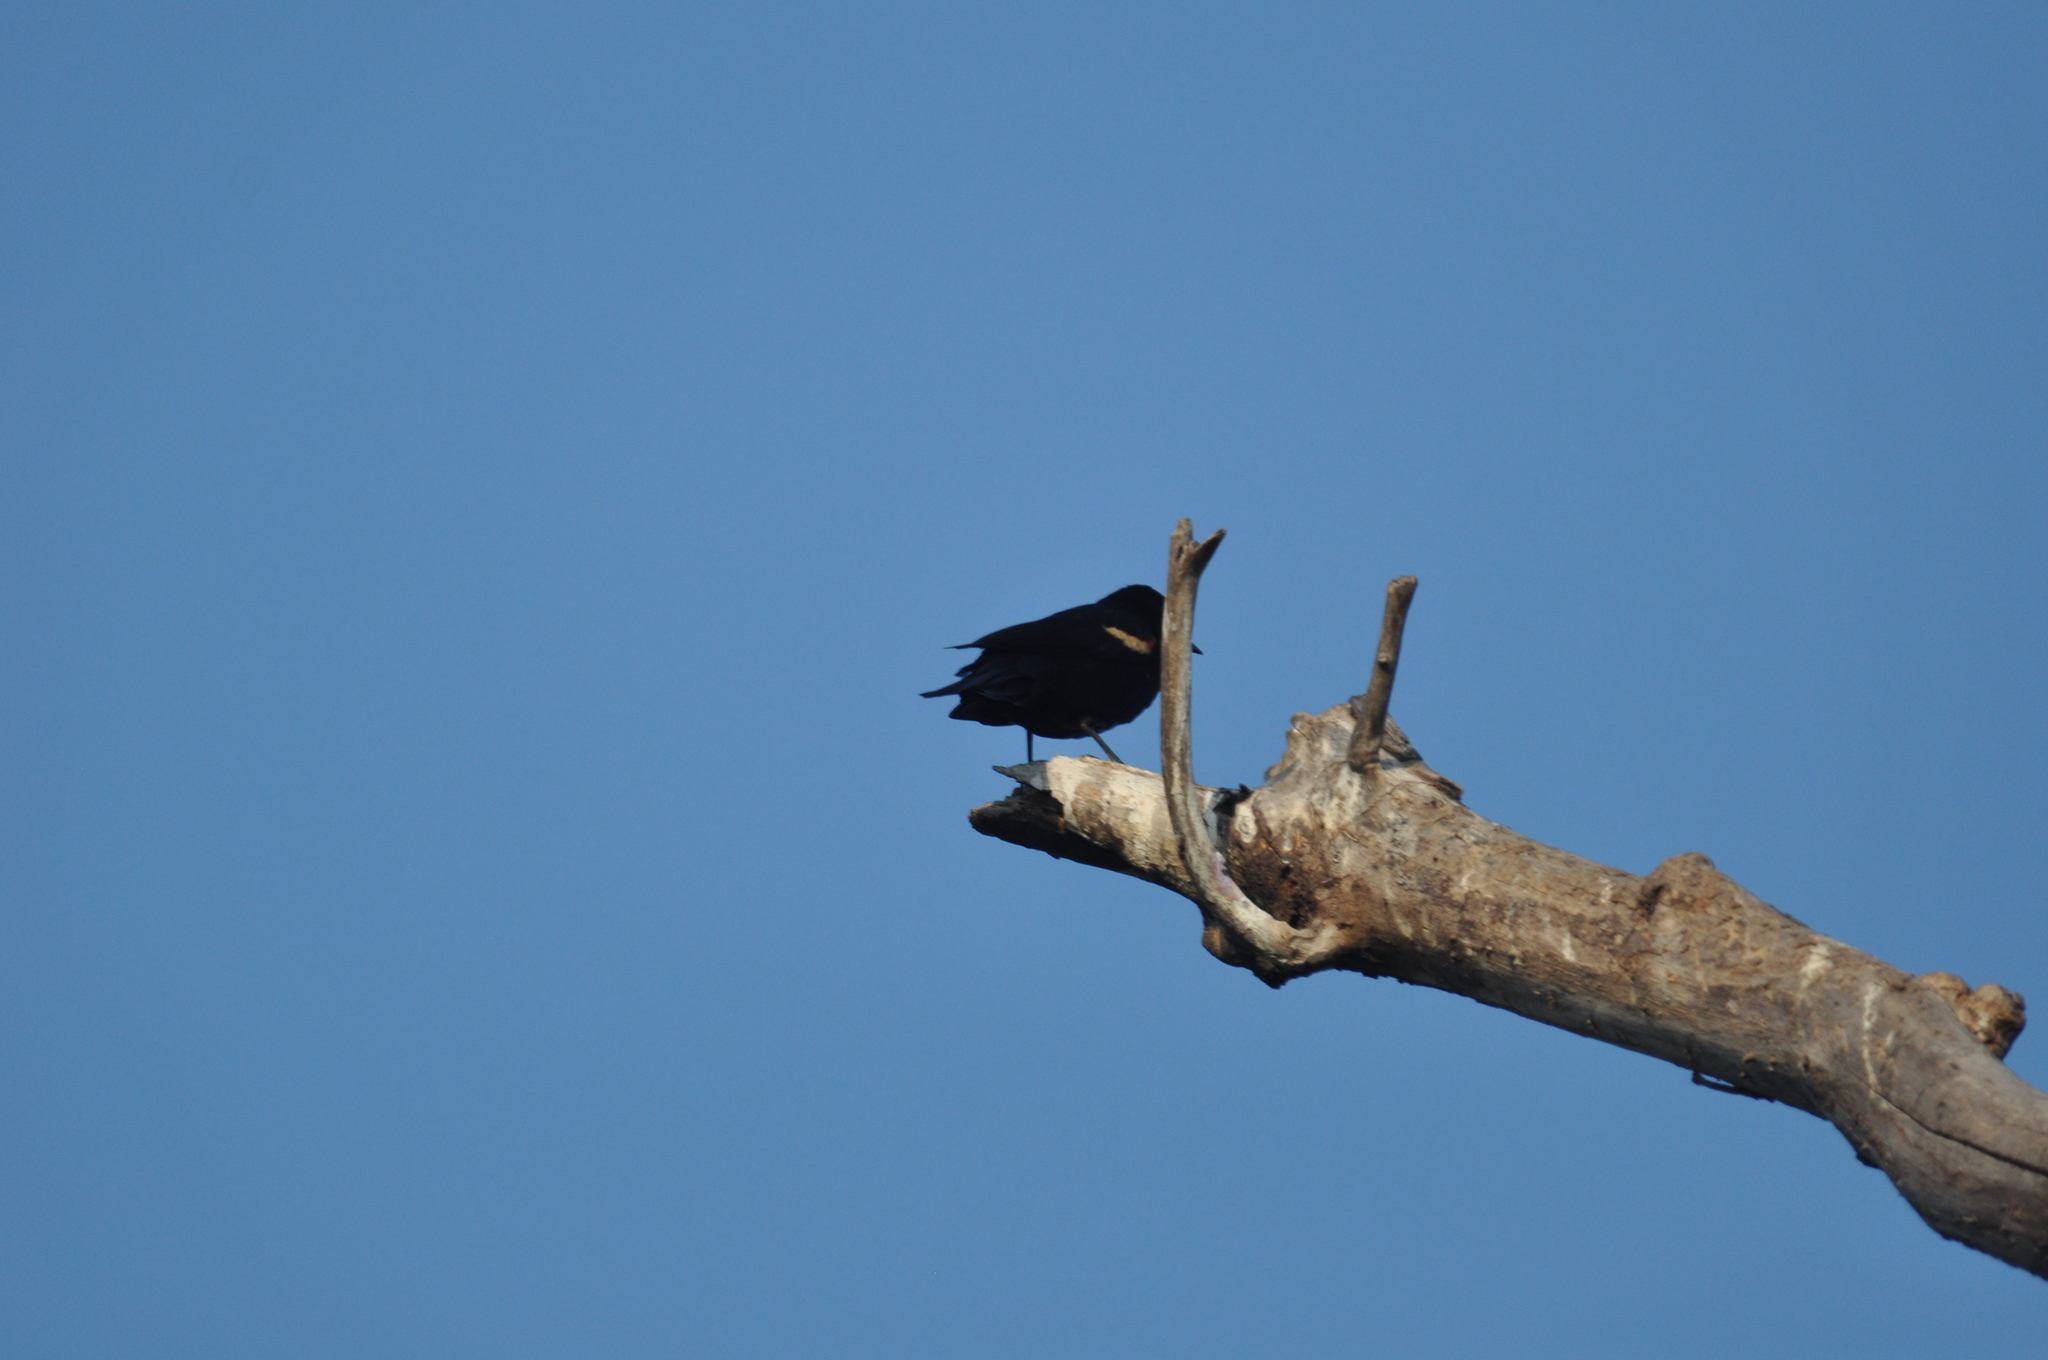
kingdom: Animalia
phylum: Chordata
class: Aves
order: Passeriformes
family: Icteridae
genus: Agelaius
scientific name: Agelaius phoeniceus
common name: Red-winged blackbird
